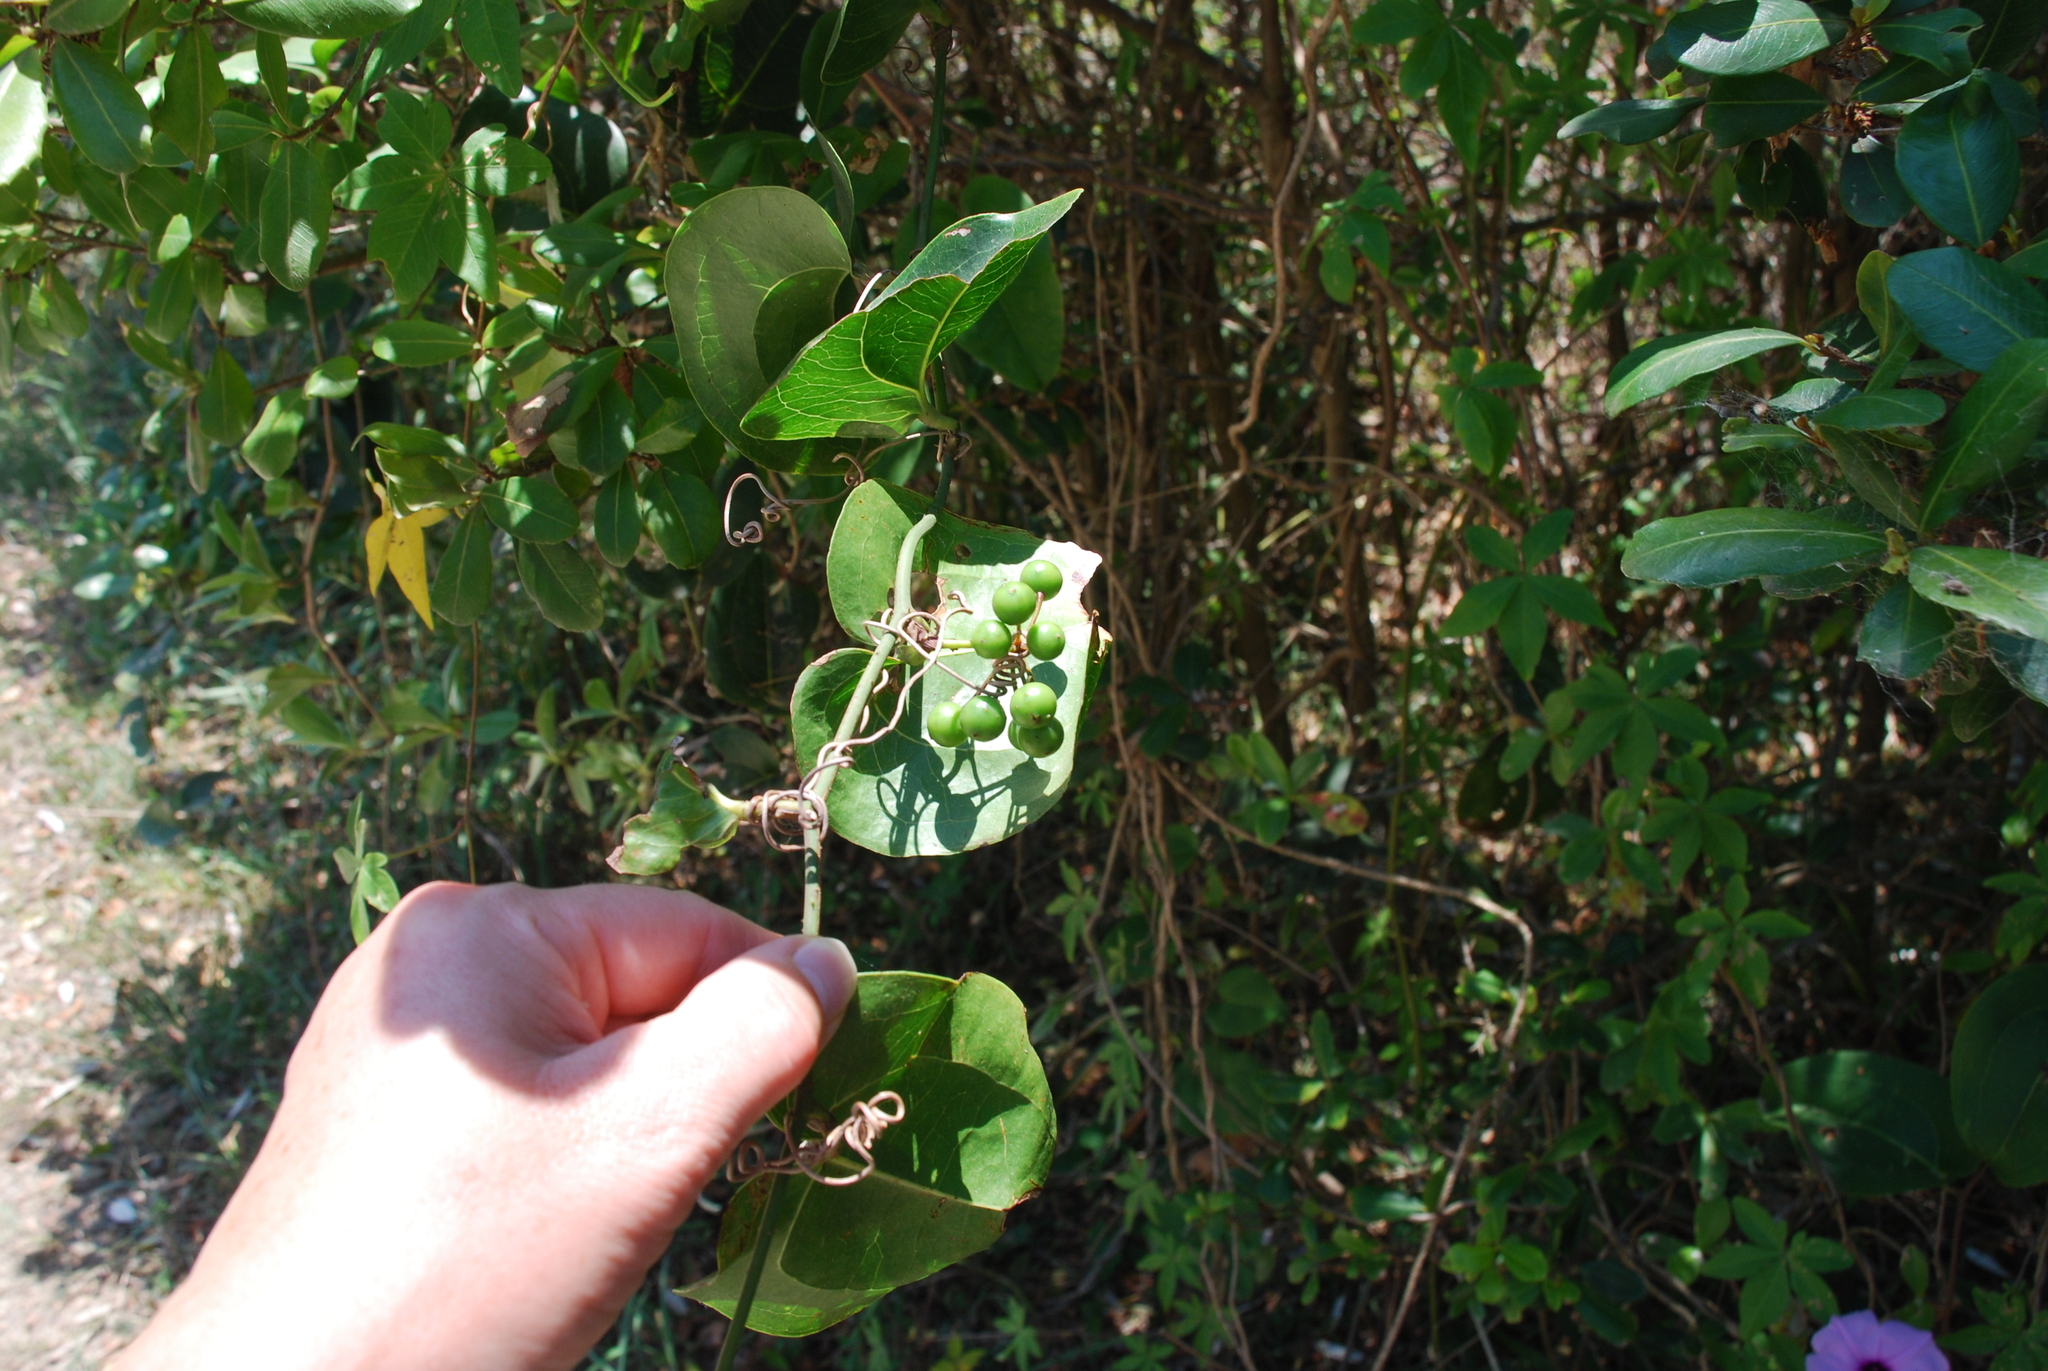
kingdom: Plantae
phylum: Tracheophyta
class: Liliopsida
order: Liliales
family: Smilacaceae
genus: Smilax
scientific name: Smilax australis
